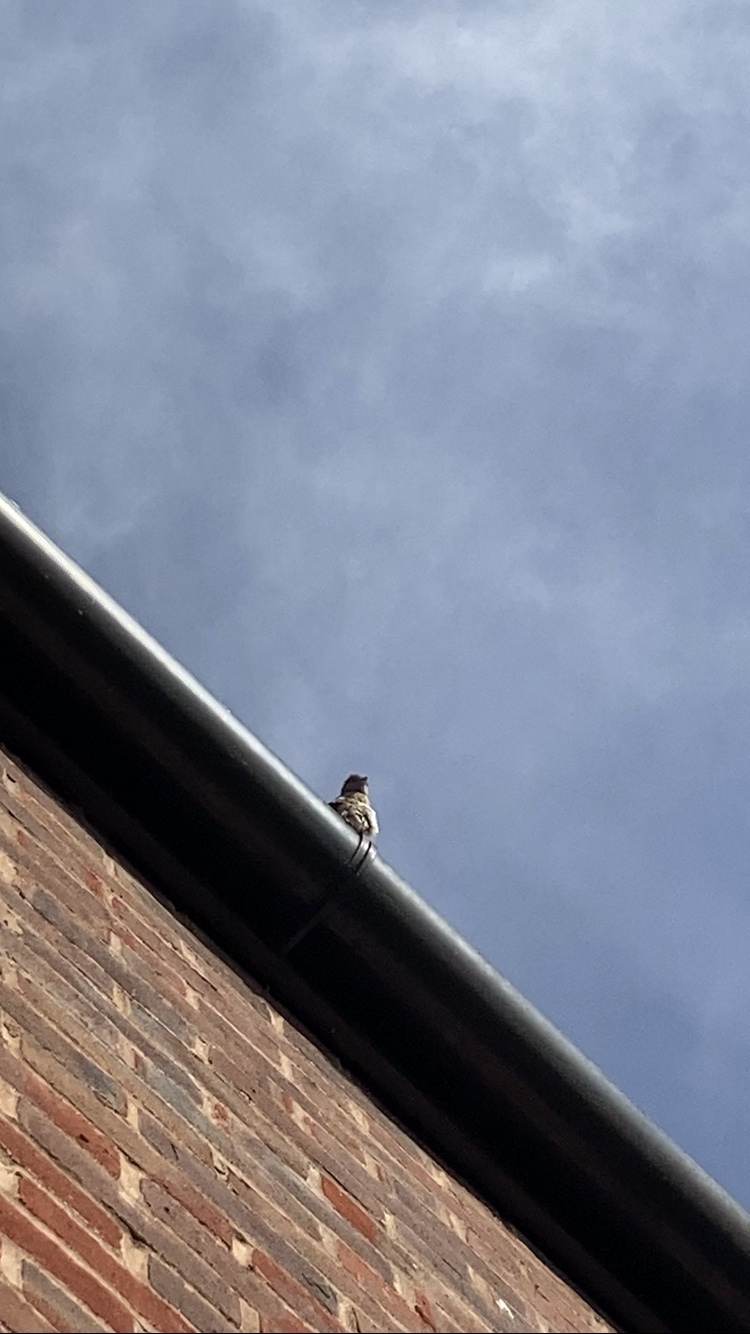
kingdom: Animalia
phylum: Chordata
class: Aves
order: Passeriformes
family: Passeridae
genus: Passer
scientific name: Passer domesticus
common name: House sparrow
